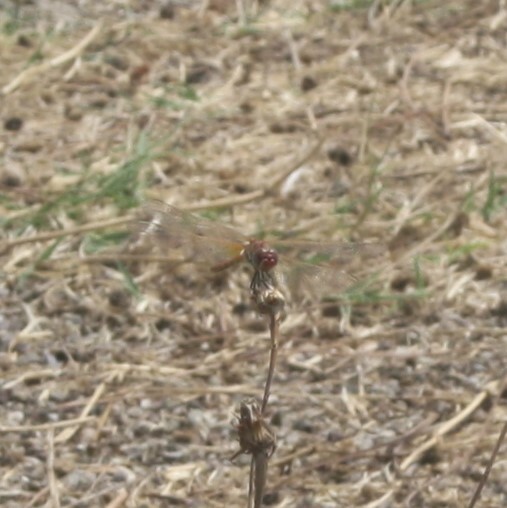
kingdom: Animalia
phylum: Arthropoda
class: Insecta
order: Odonata
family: Libellulidae
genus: Sympetrum
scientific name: Sympetrum fonscolombii
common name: Red-veined darter
